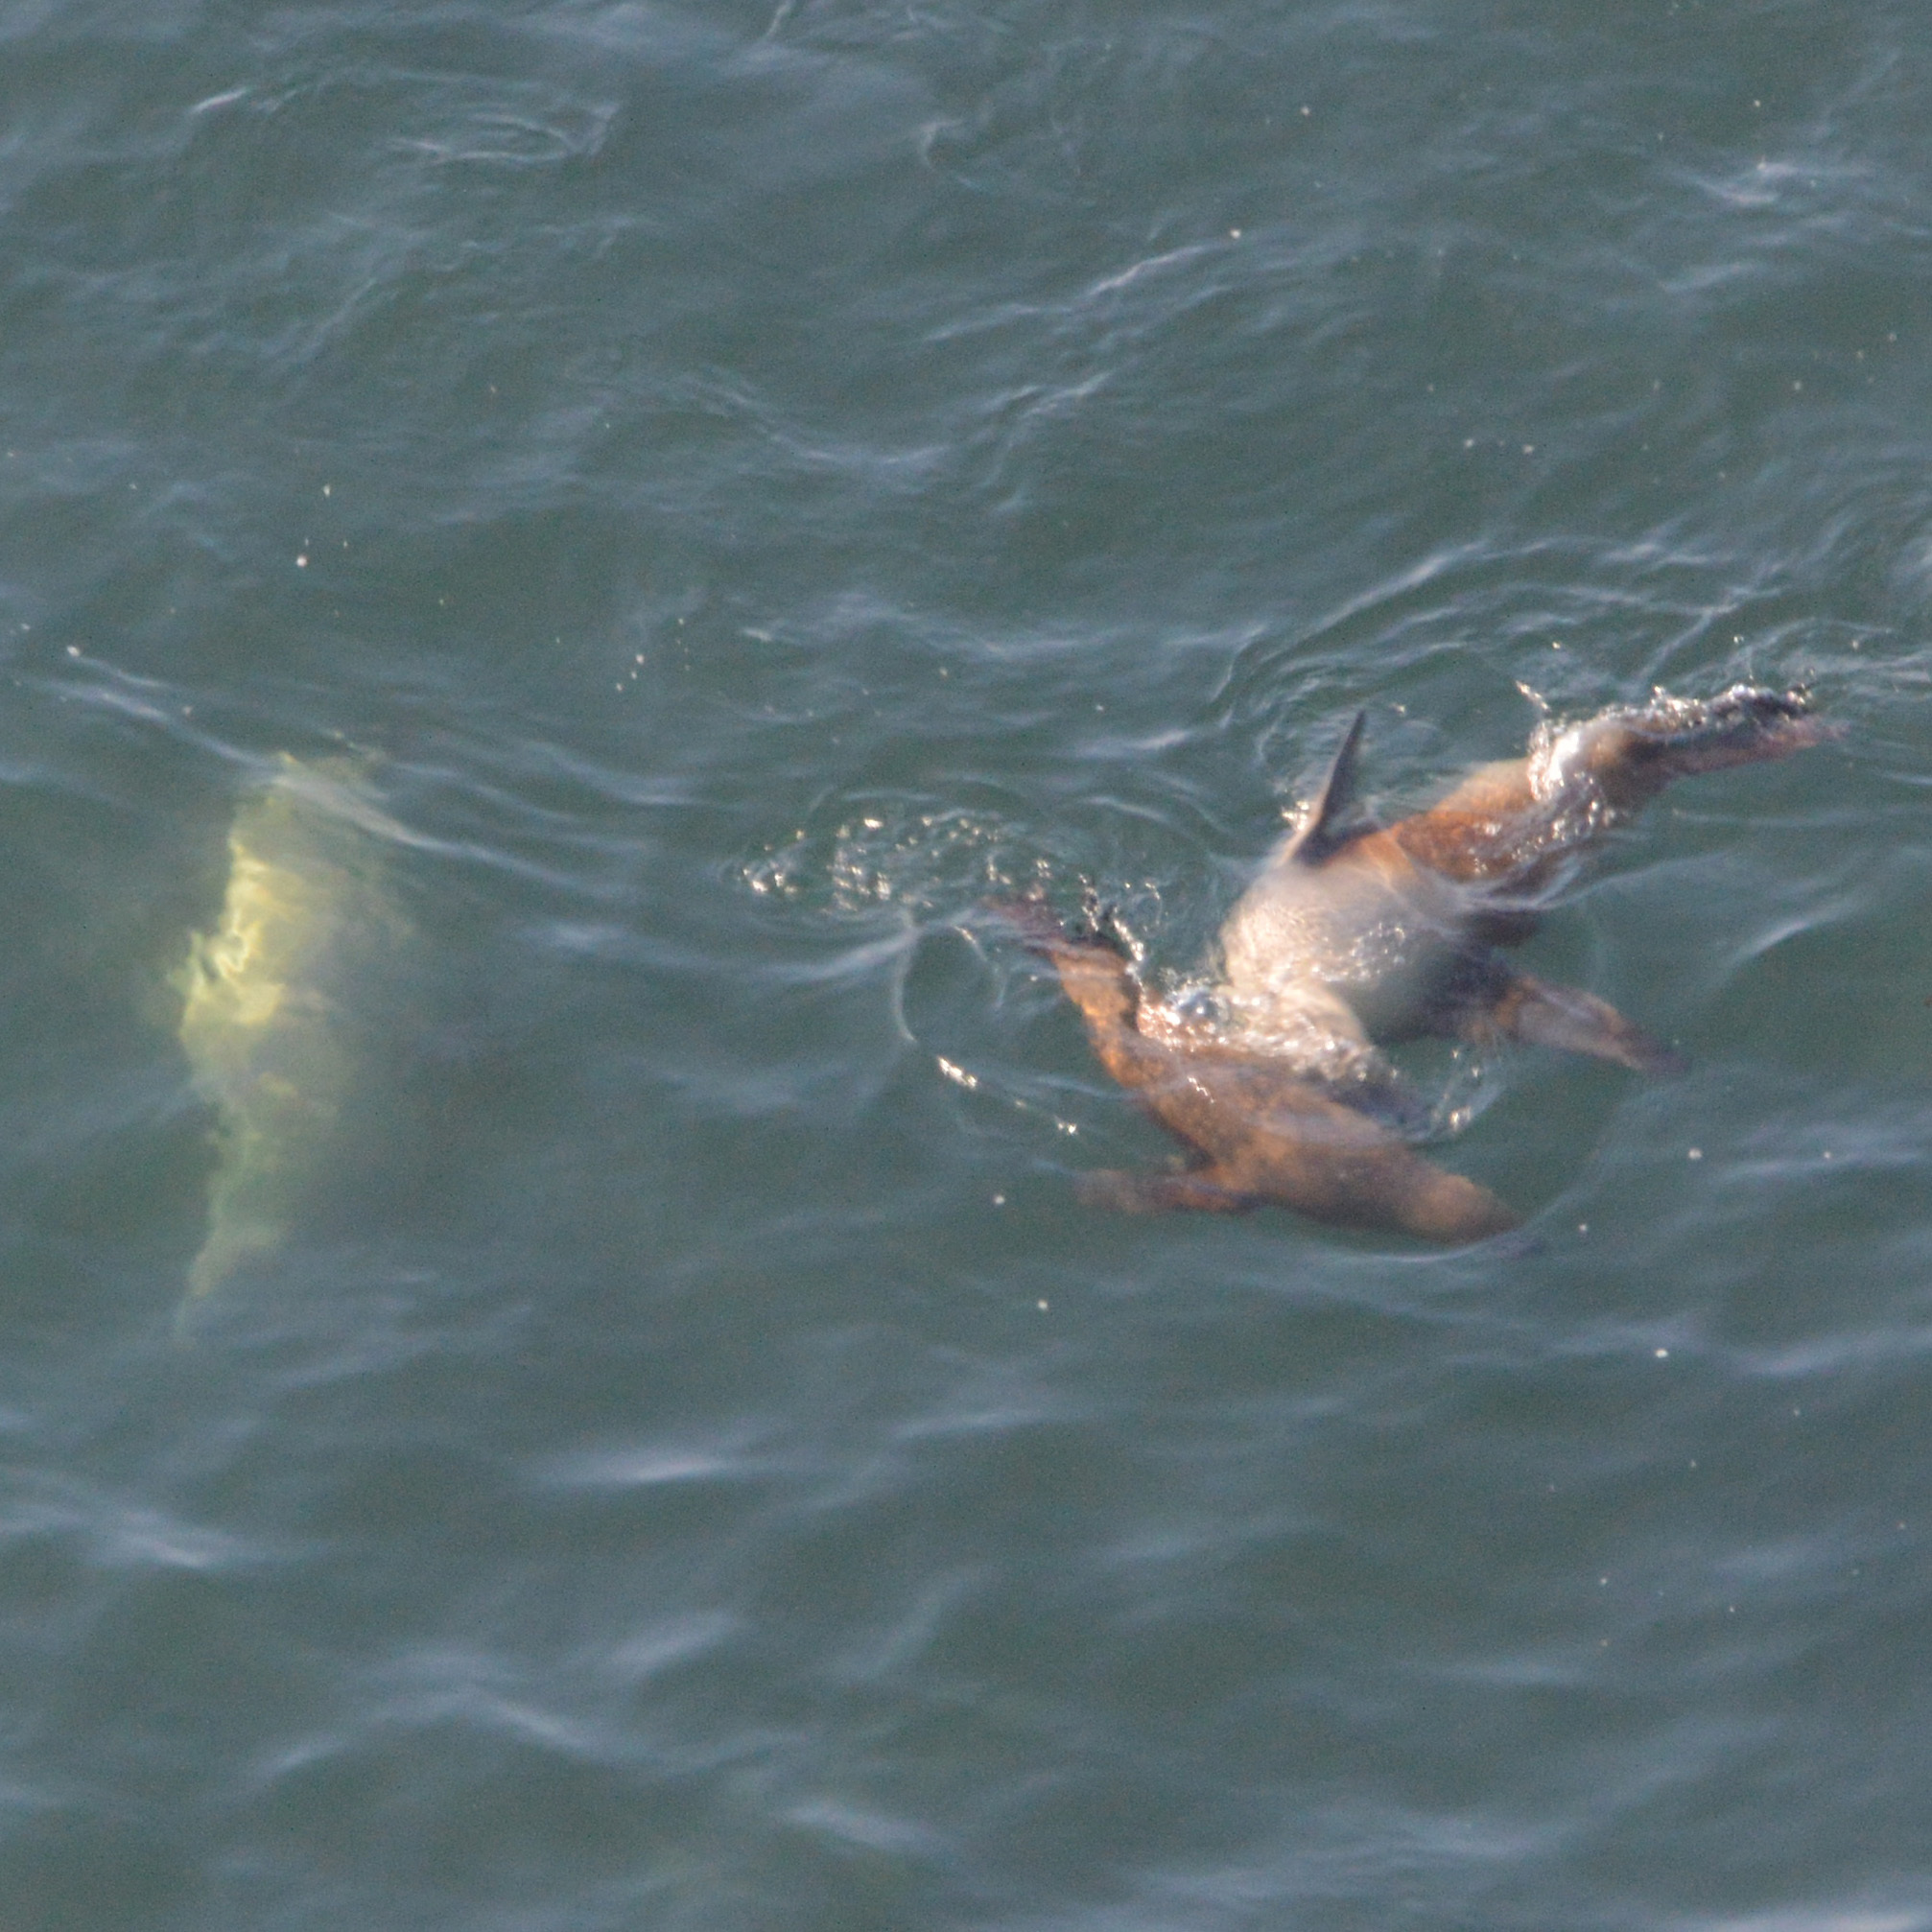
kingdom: Animalia
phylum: Chordata
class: Mammalia
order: Carnivora
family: Otariidae
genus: Zalophus
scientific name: Zalophus californianus
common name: California sea lion
